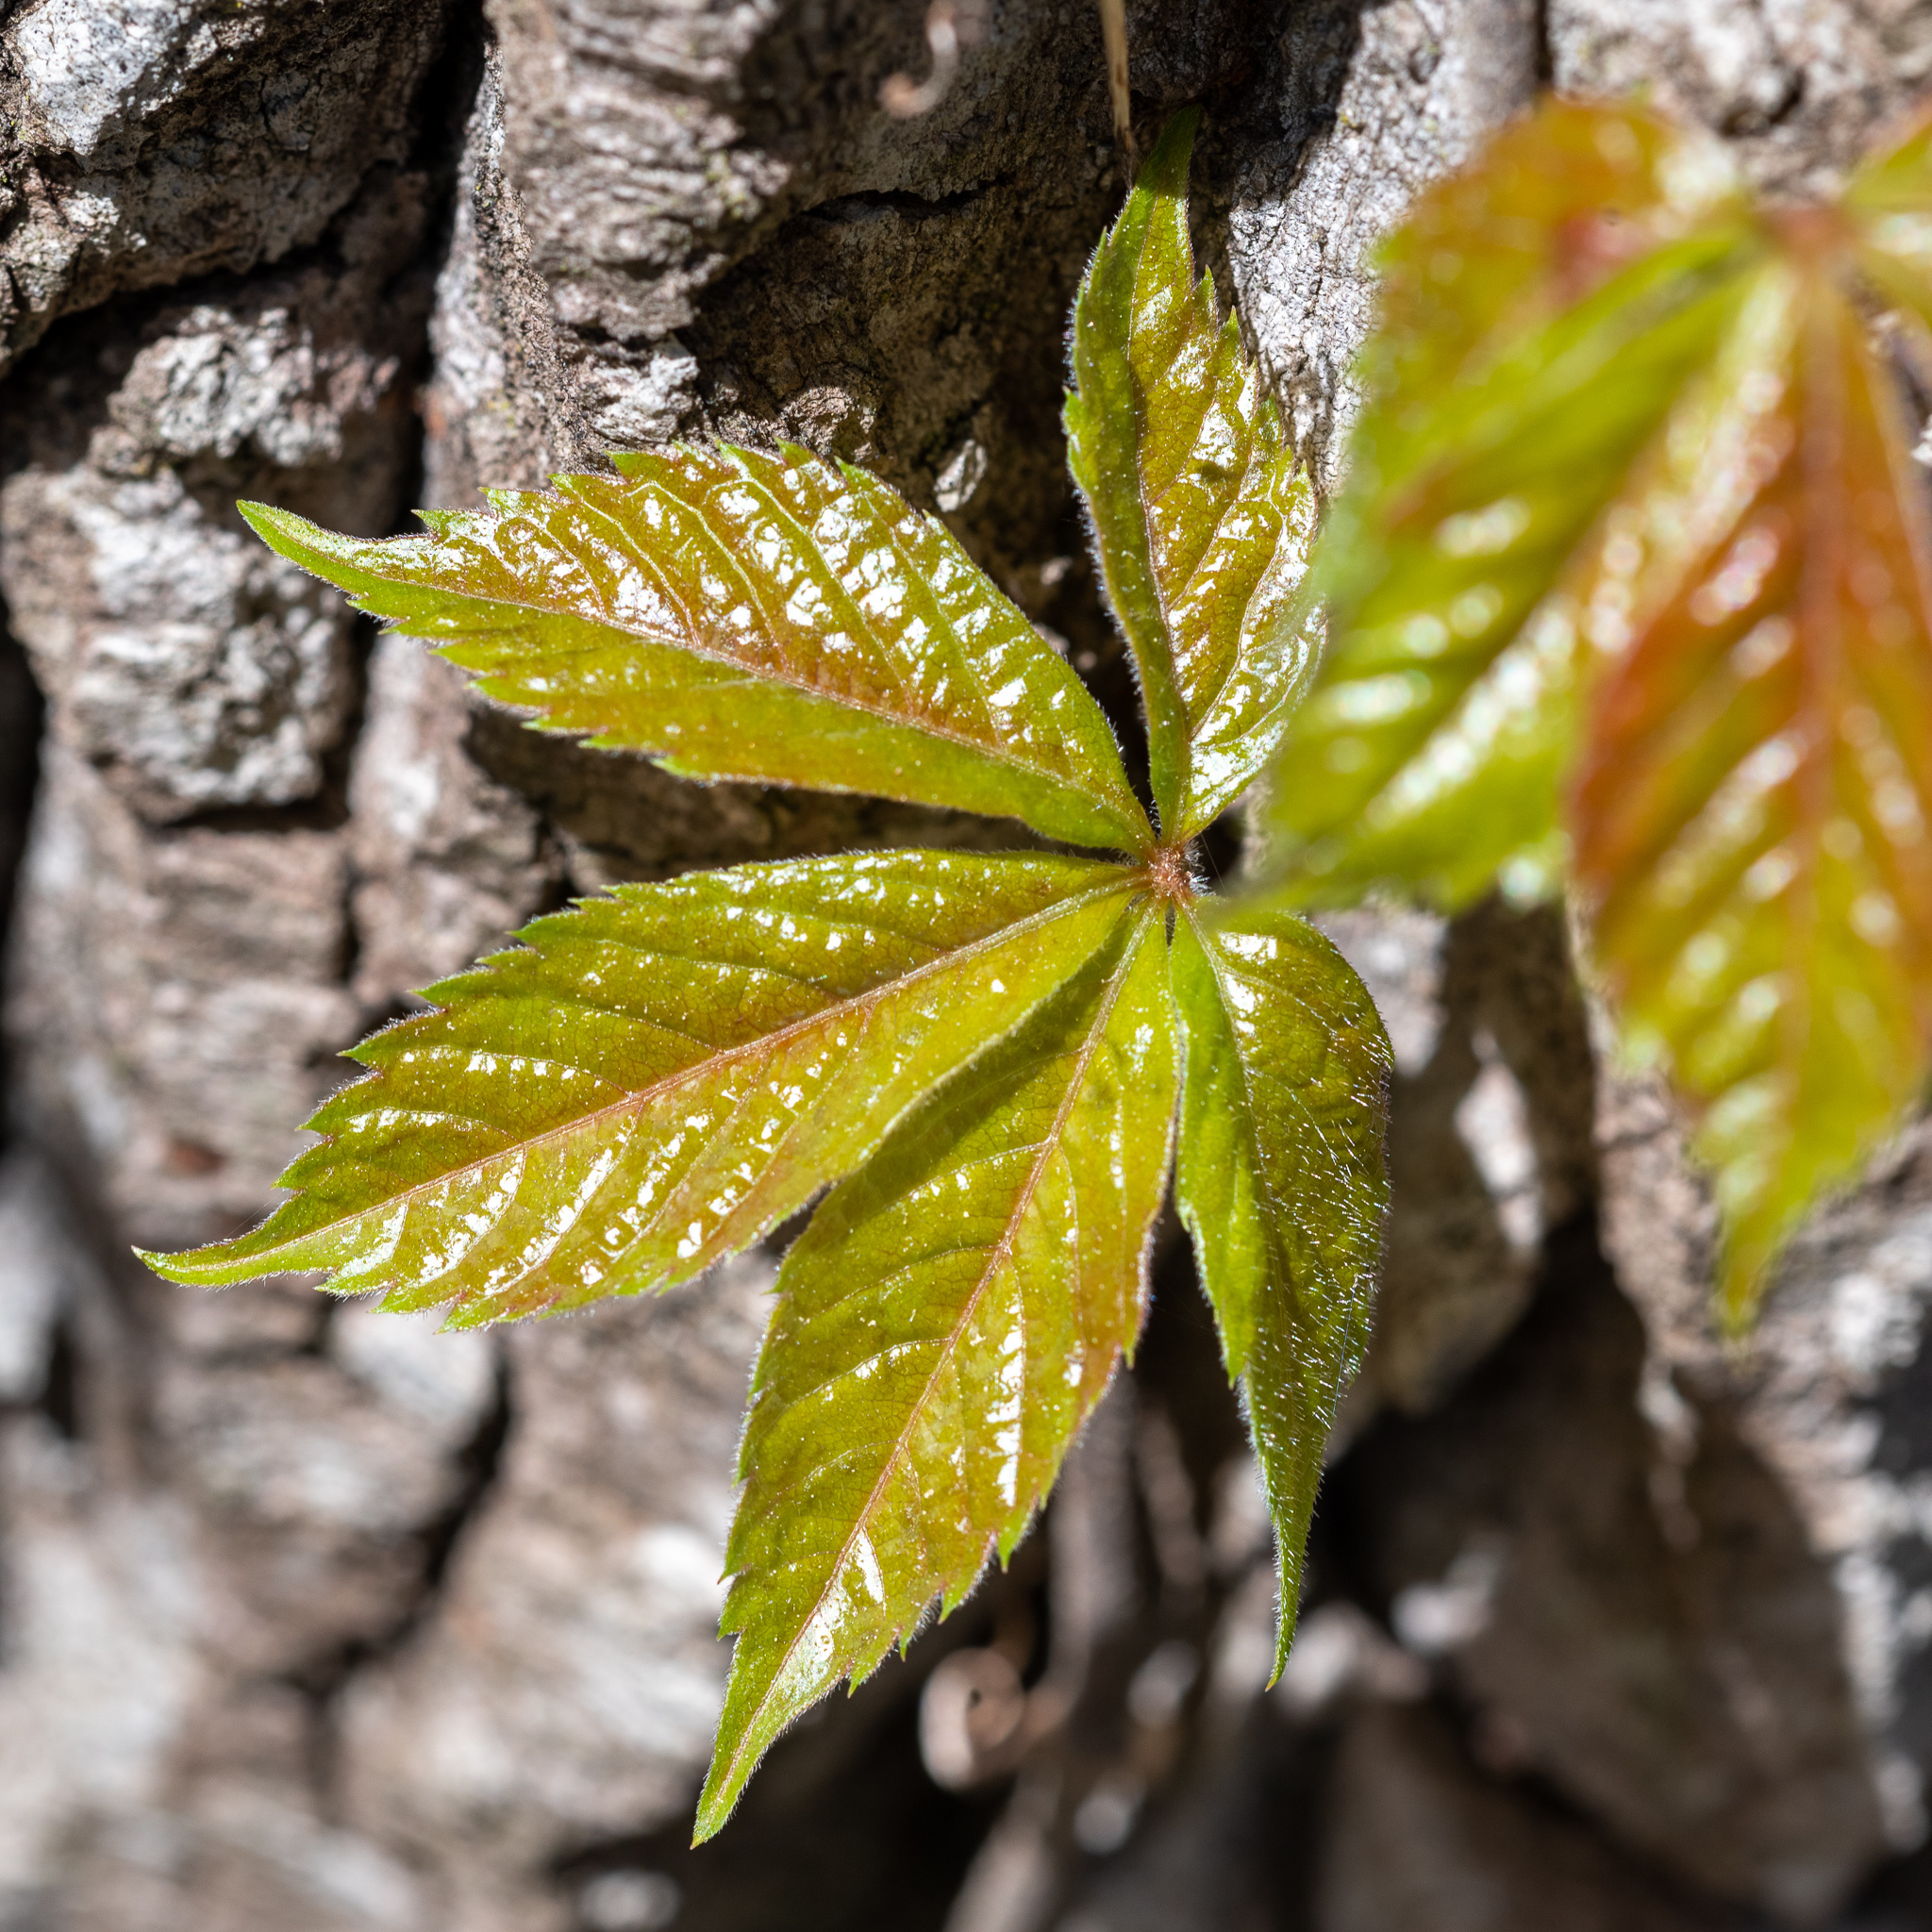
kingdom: Plantae
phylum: Tracheophyta
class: Magnoliopsida
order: Vitales
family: Vitaceae
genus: Parthenocissus
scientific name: Parthenocissus quinquefolia
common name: Virginia-creeper
